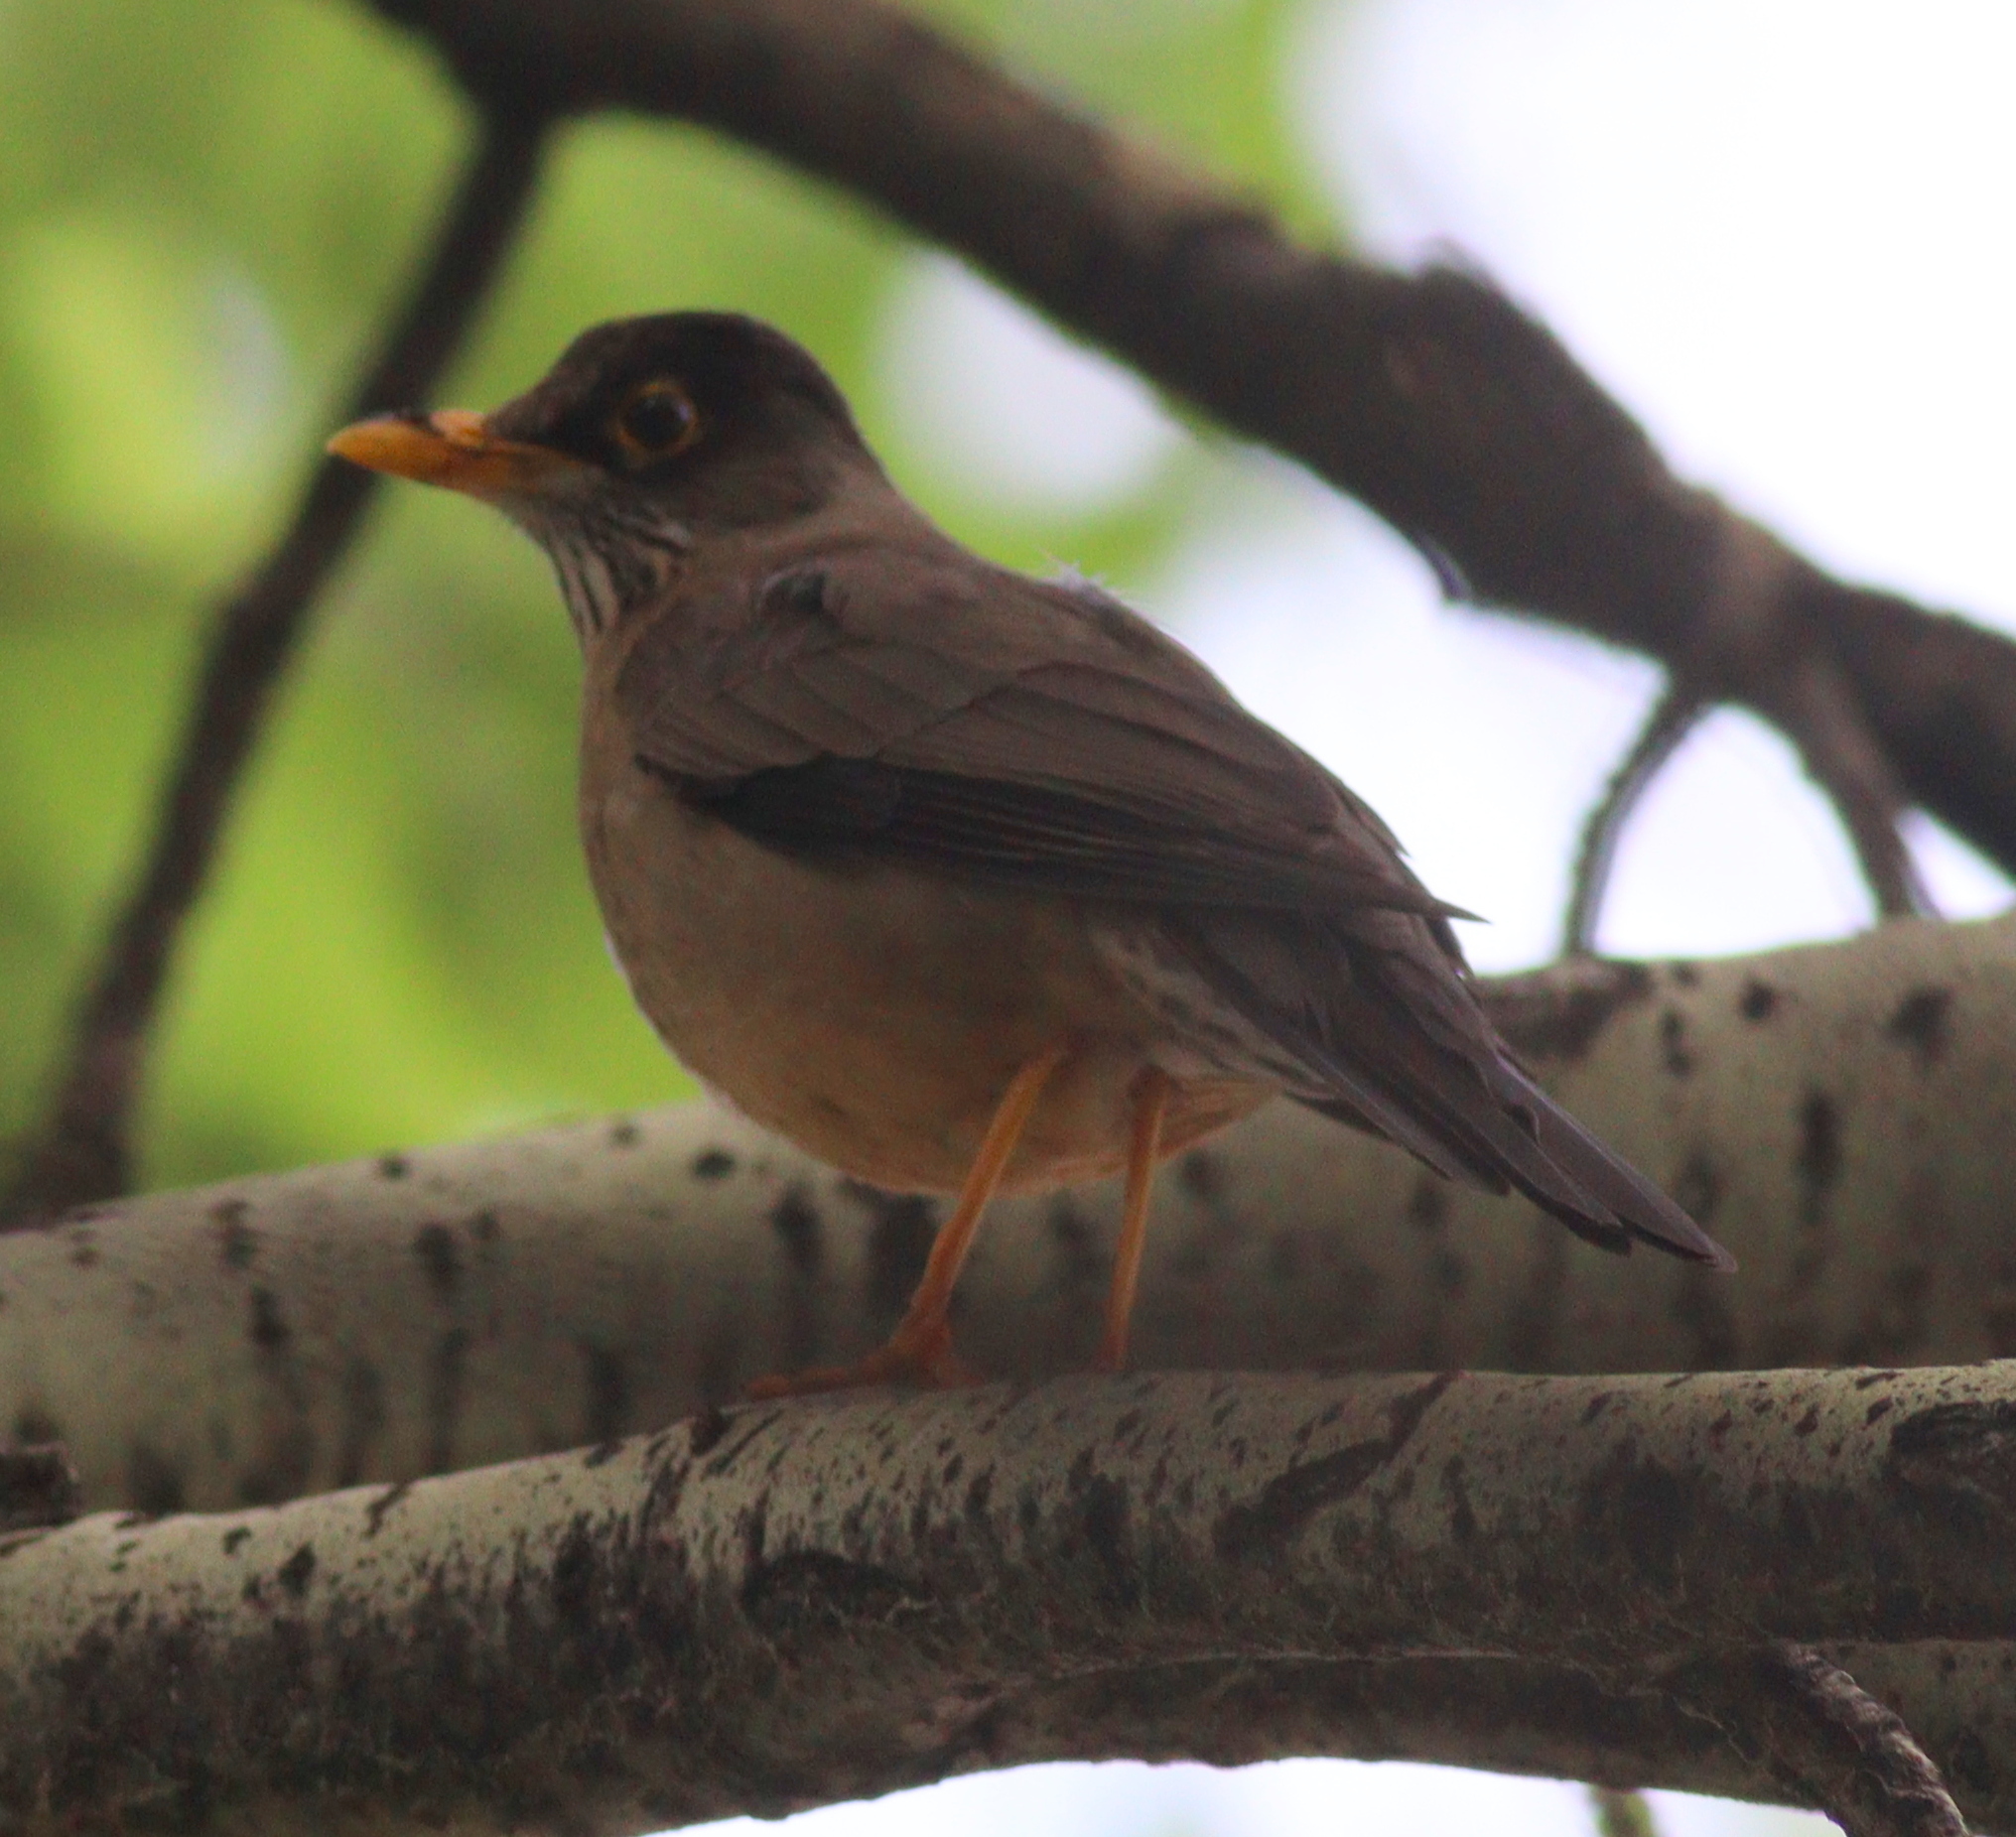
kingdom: Animalia
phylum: Chordata
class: Aves
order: Passeriformes
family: Turdidae
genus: Turdus
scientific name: Turdus falcklandii
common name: Austral thrush
